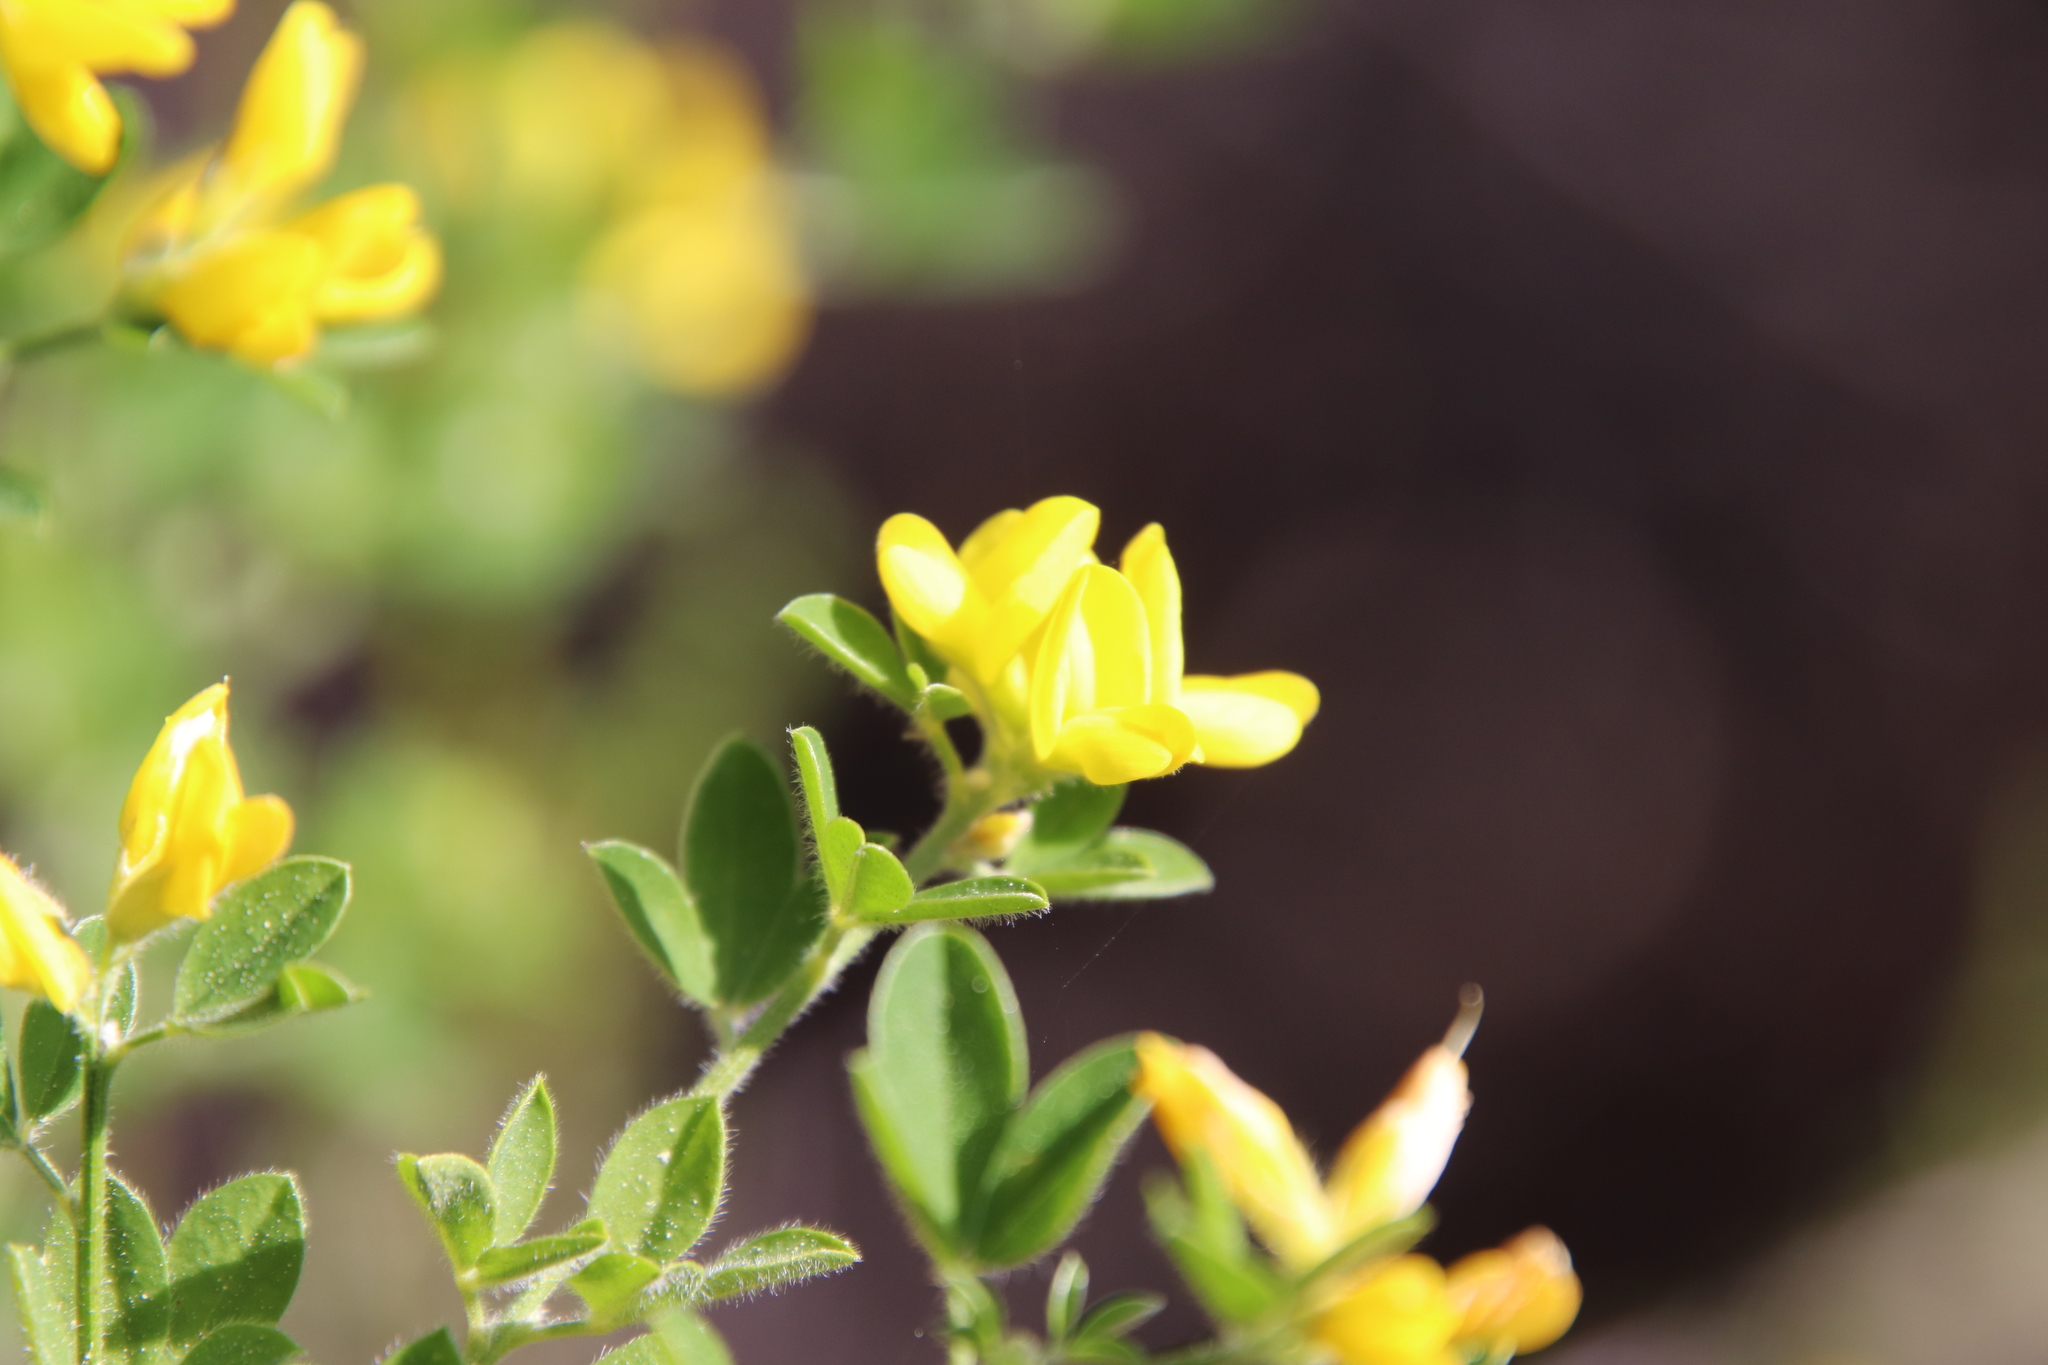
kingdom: Plantae
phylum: Tracheophyta
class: Magnoliopsida
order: Fabales
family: Fabaceae
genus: Genista
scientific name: Genista monspessulana
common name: Montpellier broom
